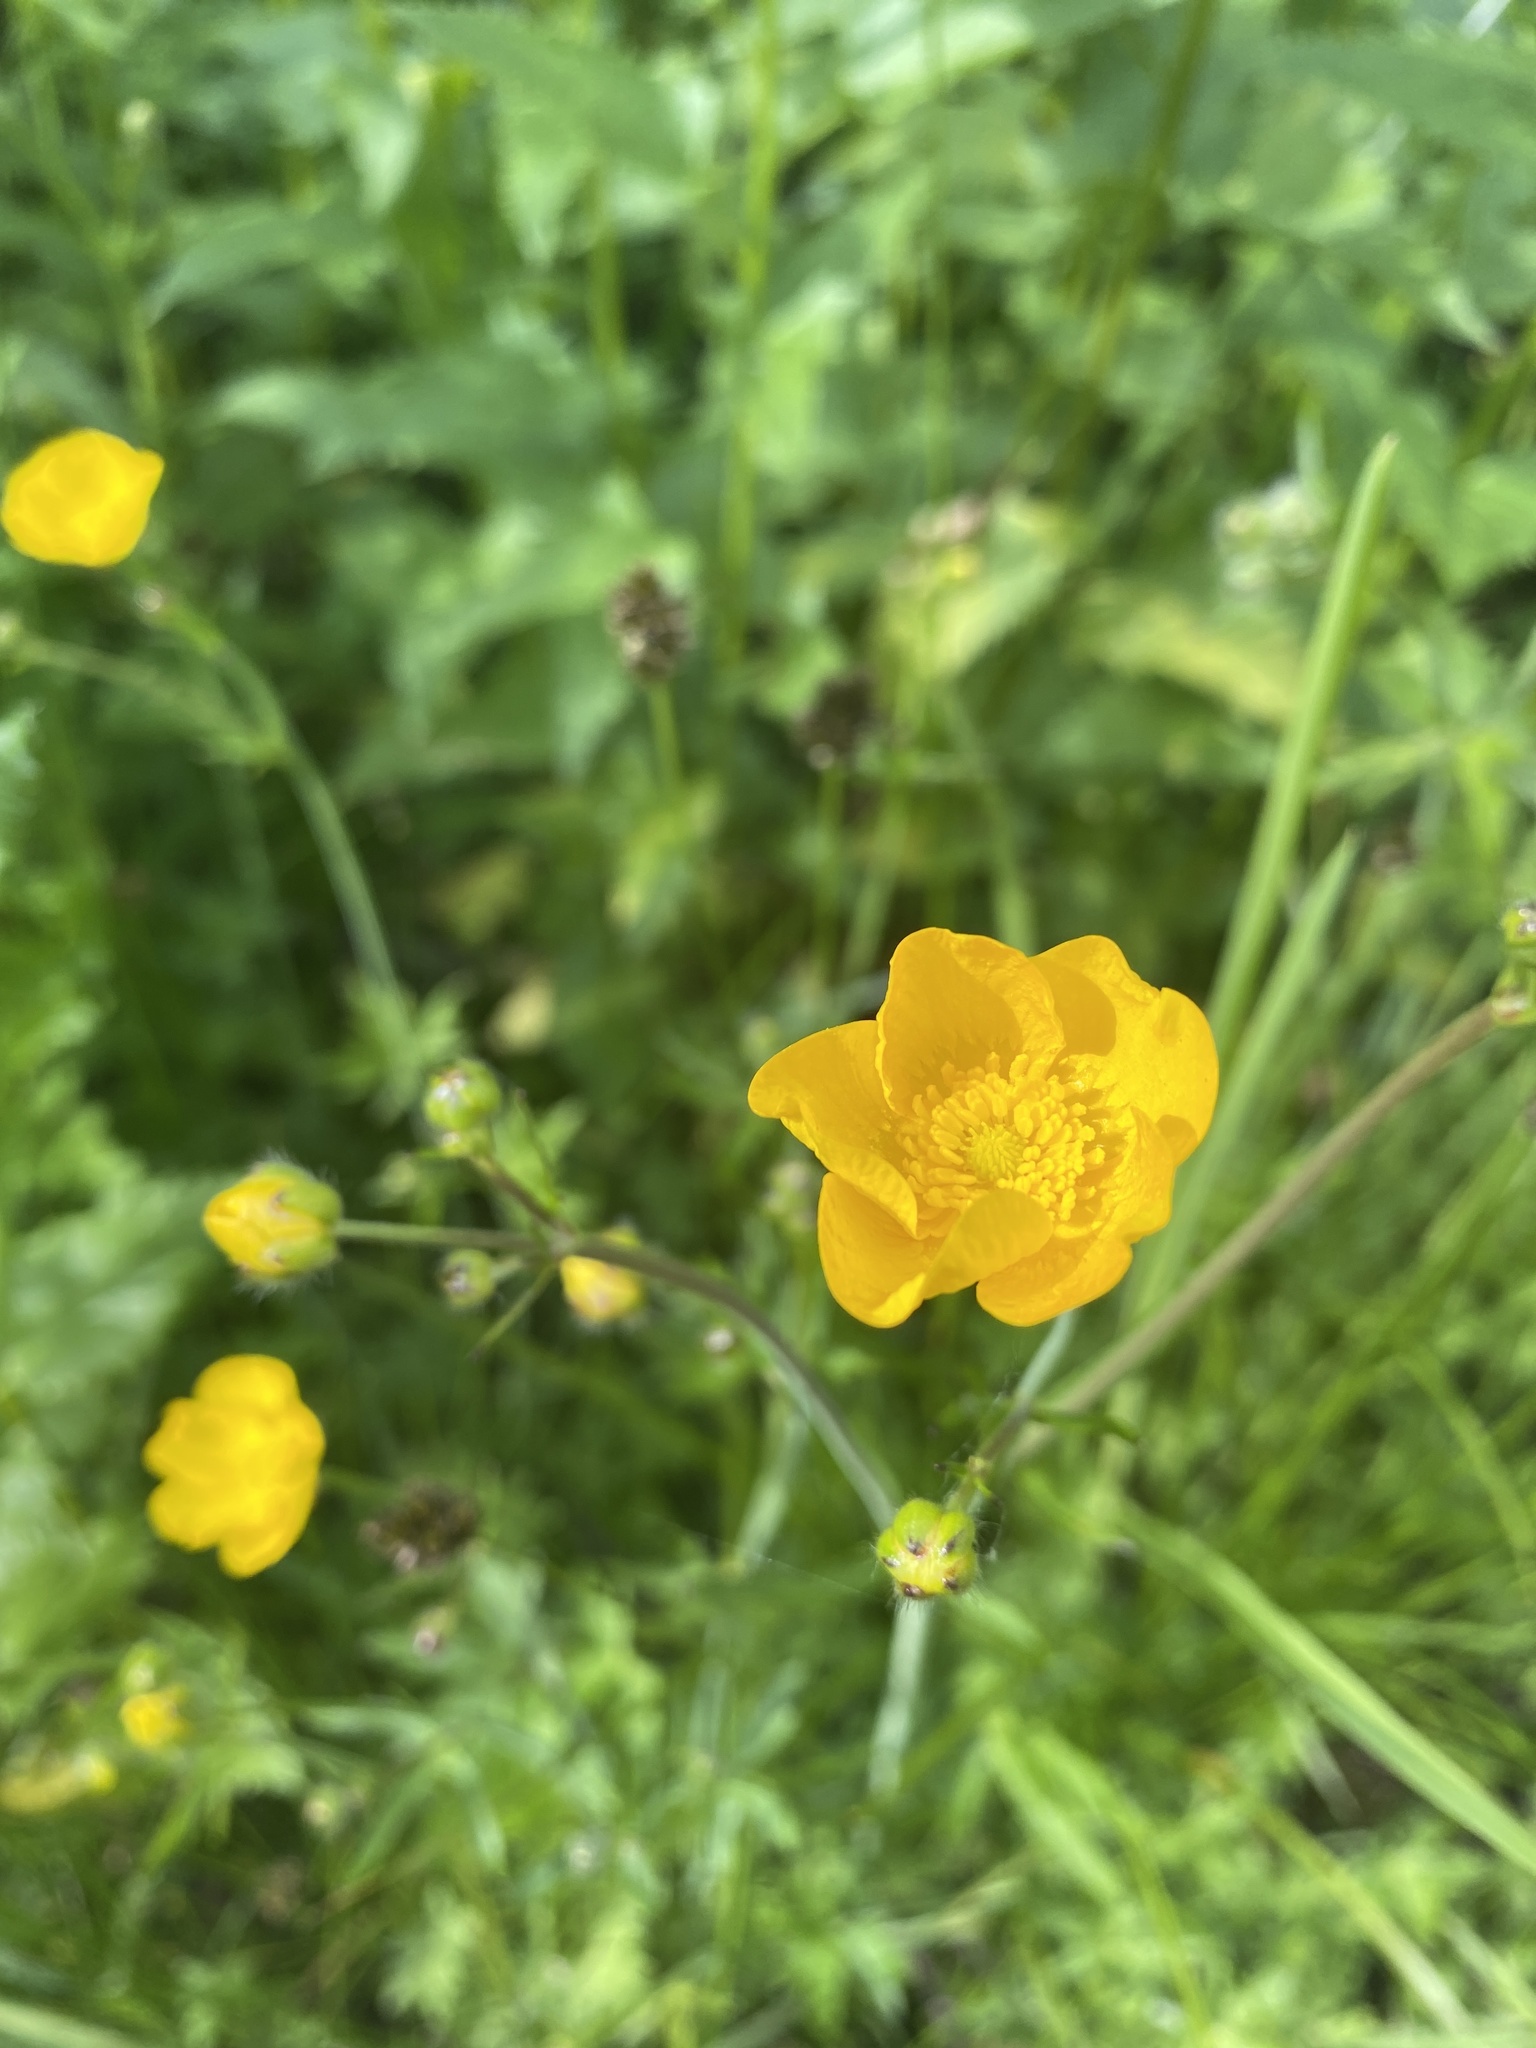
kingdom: Plantae
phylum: Tracheophyta
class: Magnoliopsida
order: Ranunculales
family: Ranunculaceae
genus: Ranunculus
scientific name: Ranunculus acris
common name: Meadow buttercup
